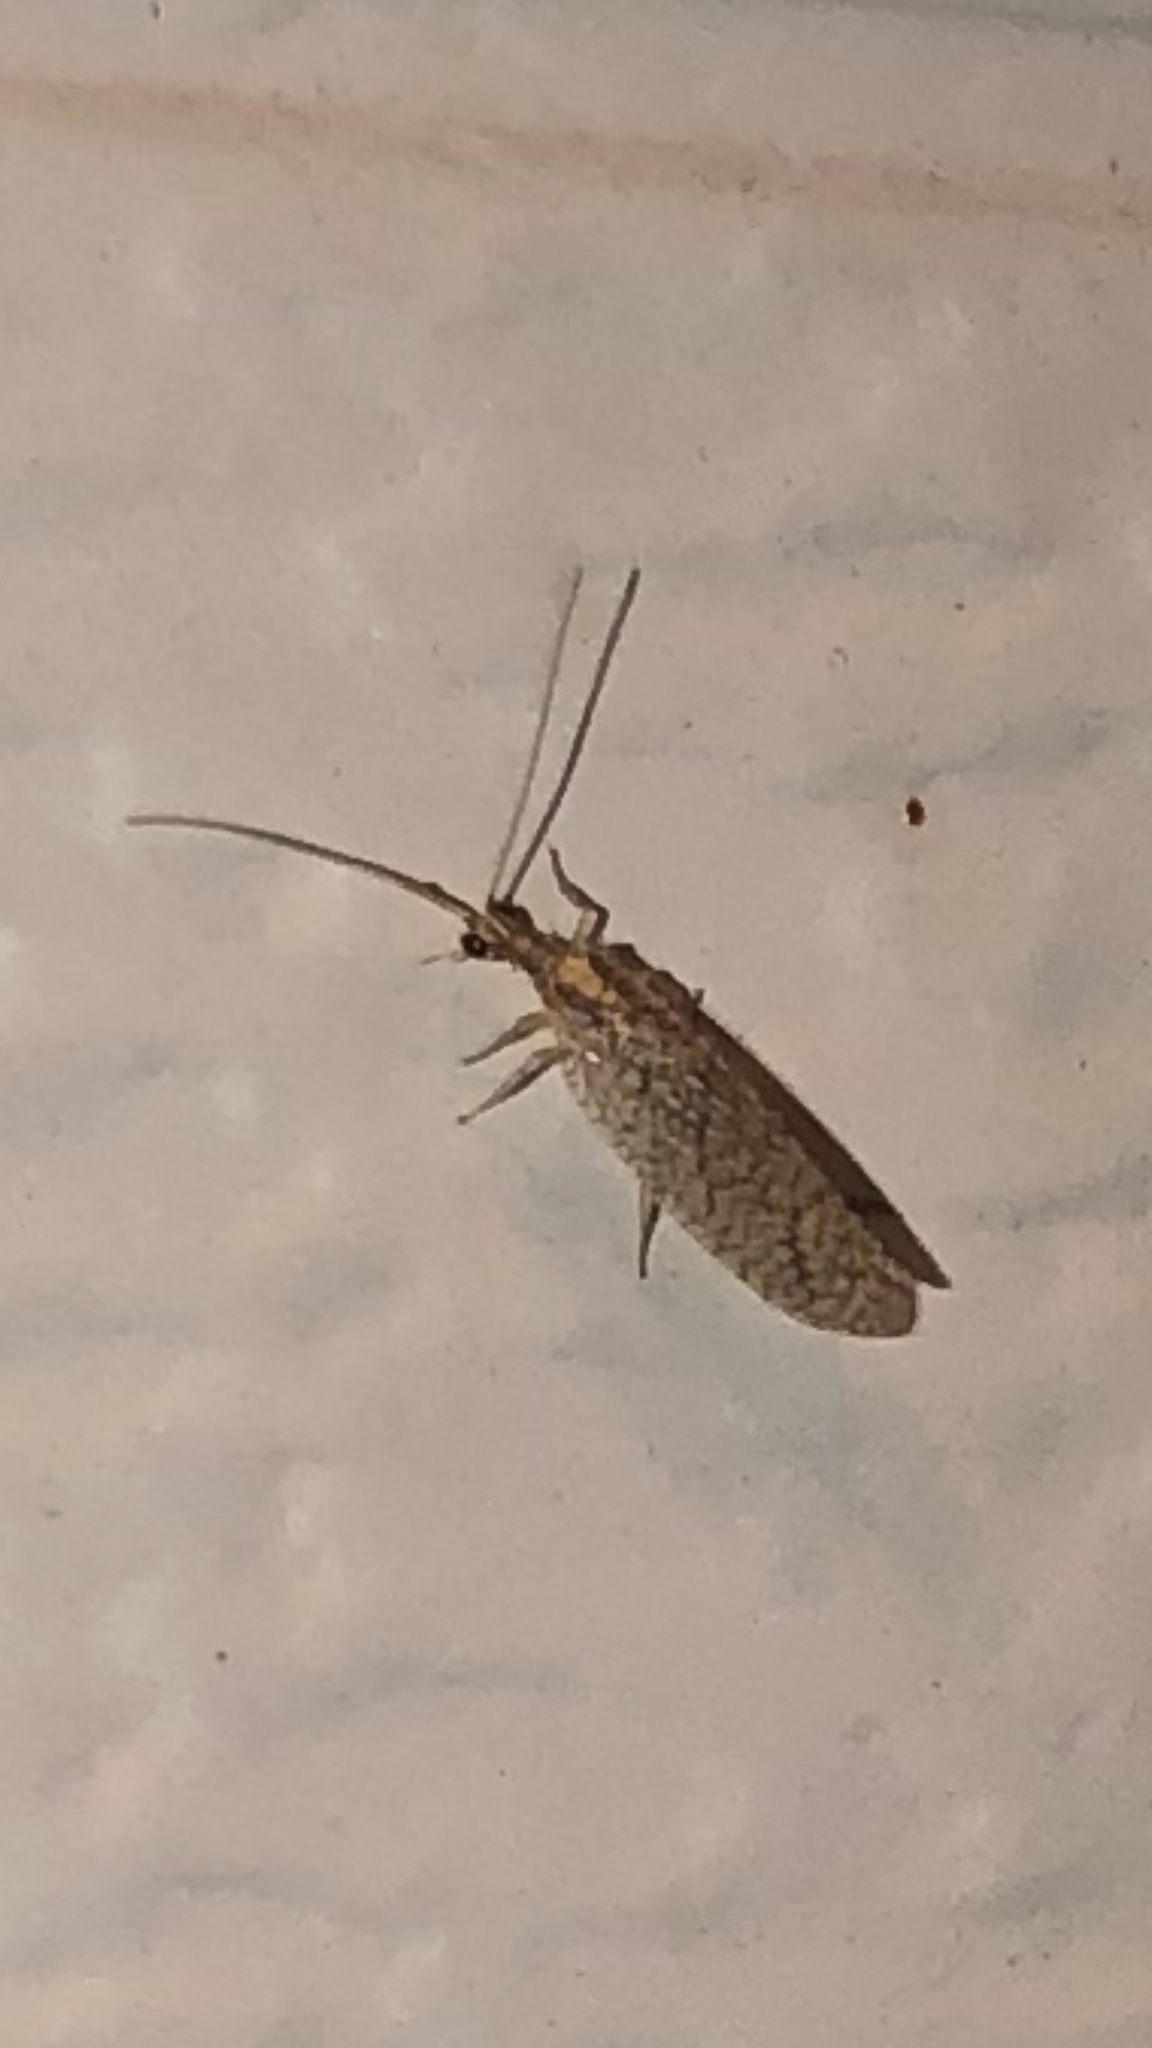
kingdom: Animalia
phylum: Arthropoda
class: Insecta
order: Neuroptera
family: Hemerobiidae
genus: Micromus
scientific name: Micromus posticus
